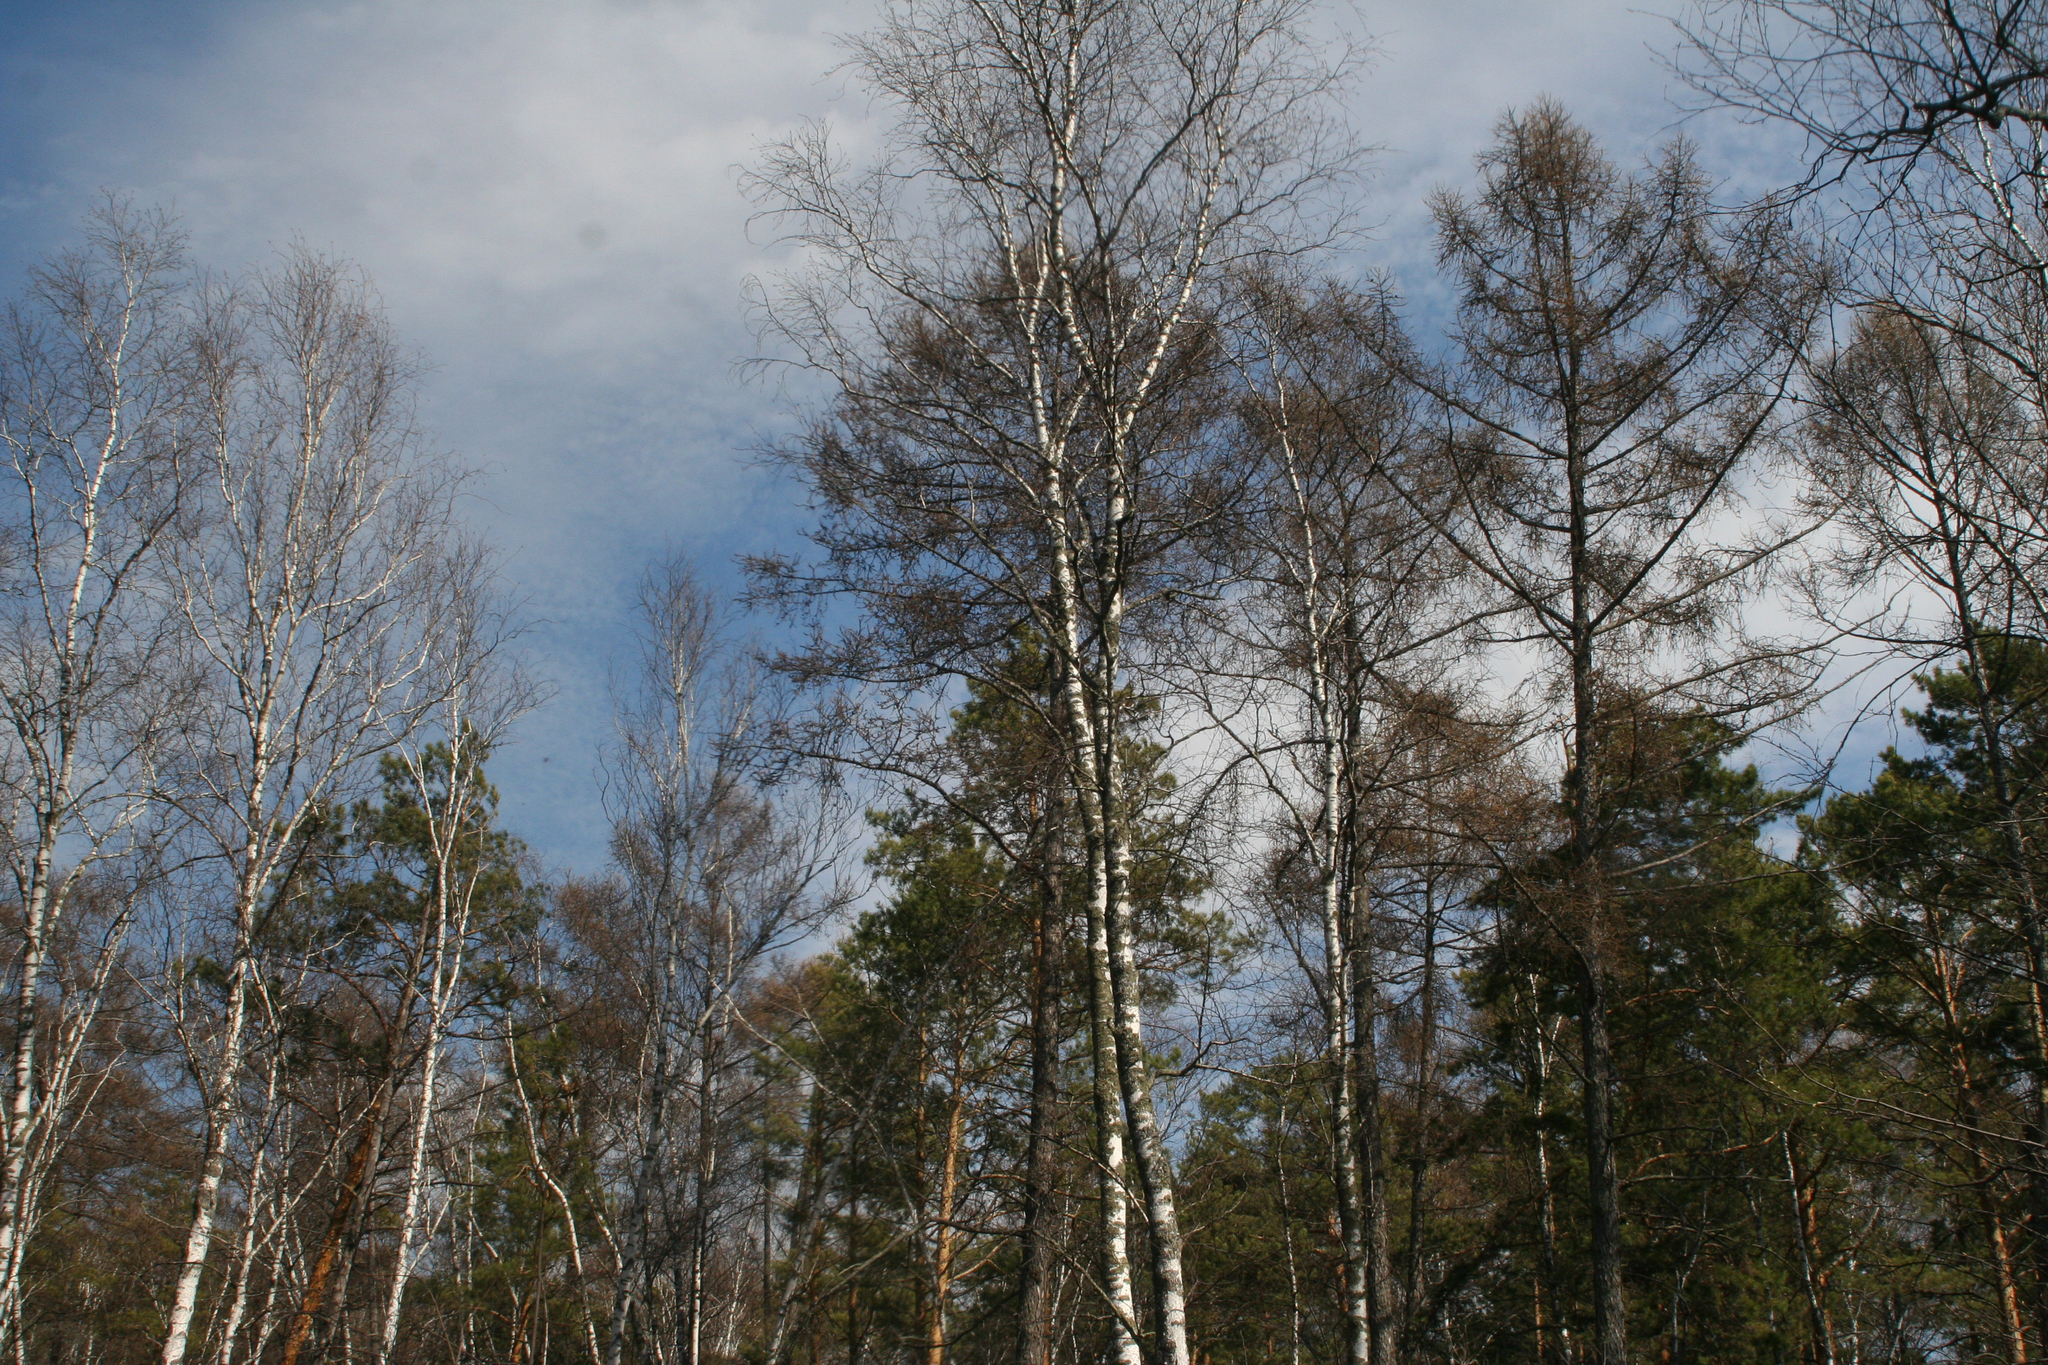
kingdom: Plantae
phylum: Tracheophyta
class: Magnoliopsida
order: Fagales
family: Betulaceae
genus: Betula
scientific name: Betula pubescens
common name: Downy birch
